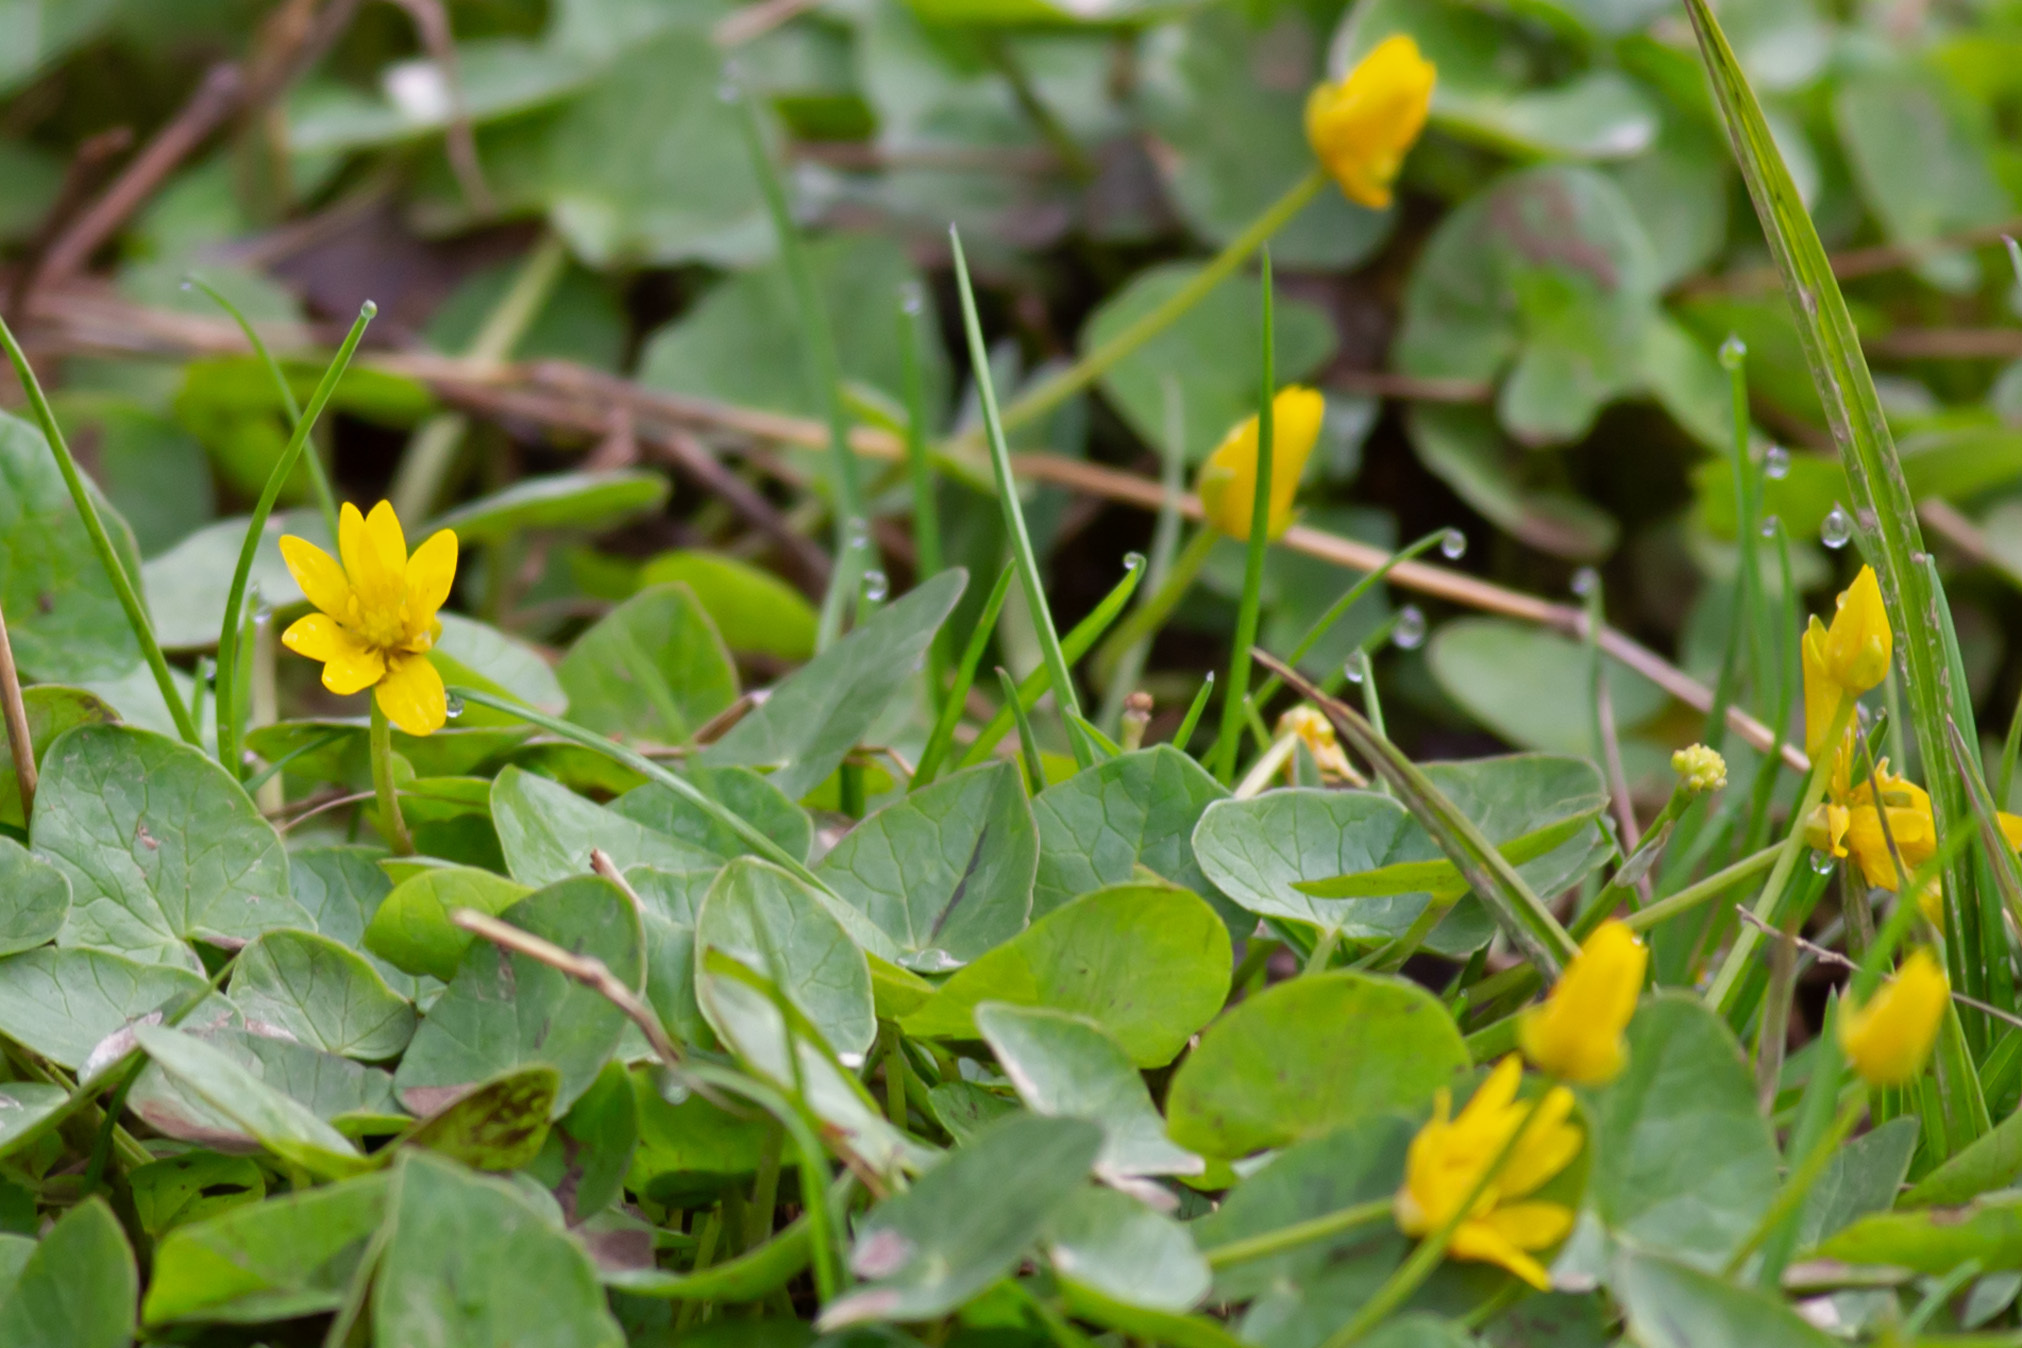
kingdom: Plantae
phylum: Tracheophyta
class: Magnoliopsida
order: Ranunculales
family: Ranunculaceae
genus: Ficaria
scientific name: Ficaria verna
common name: Lesser celandine
